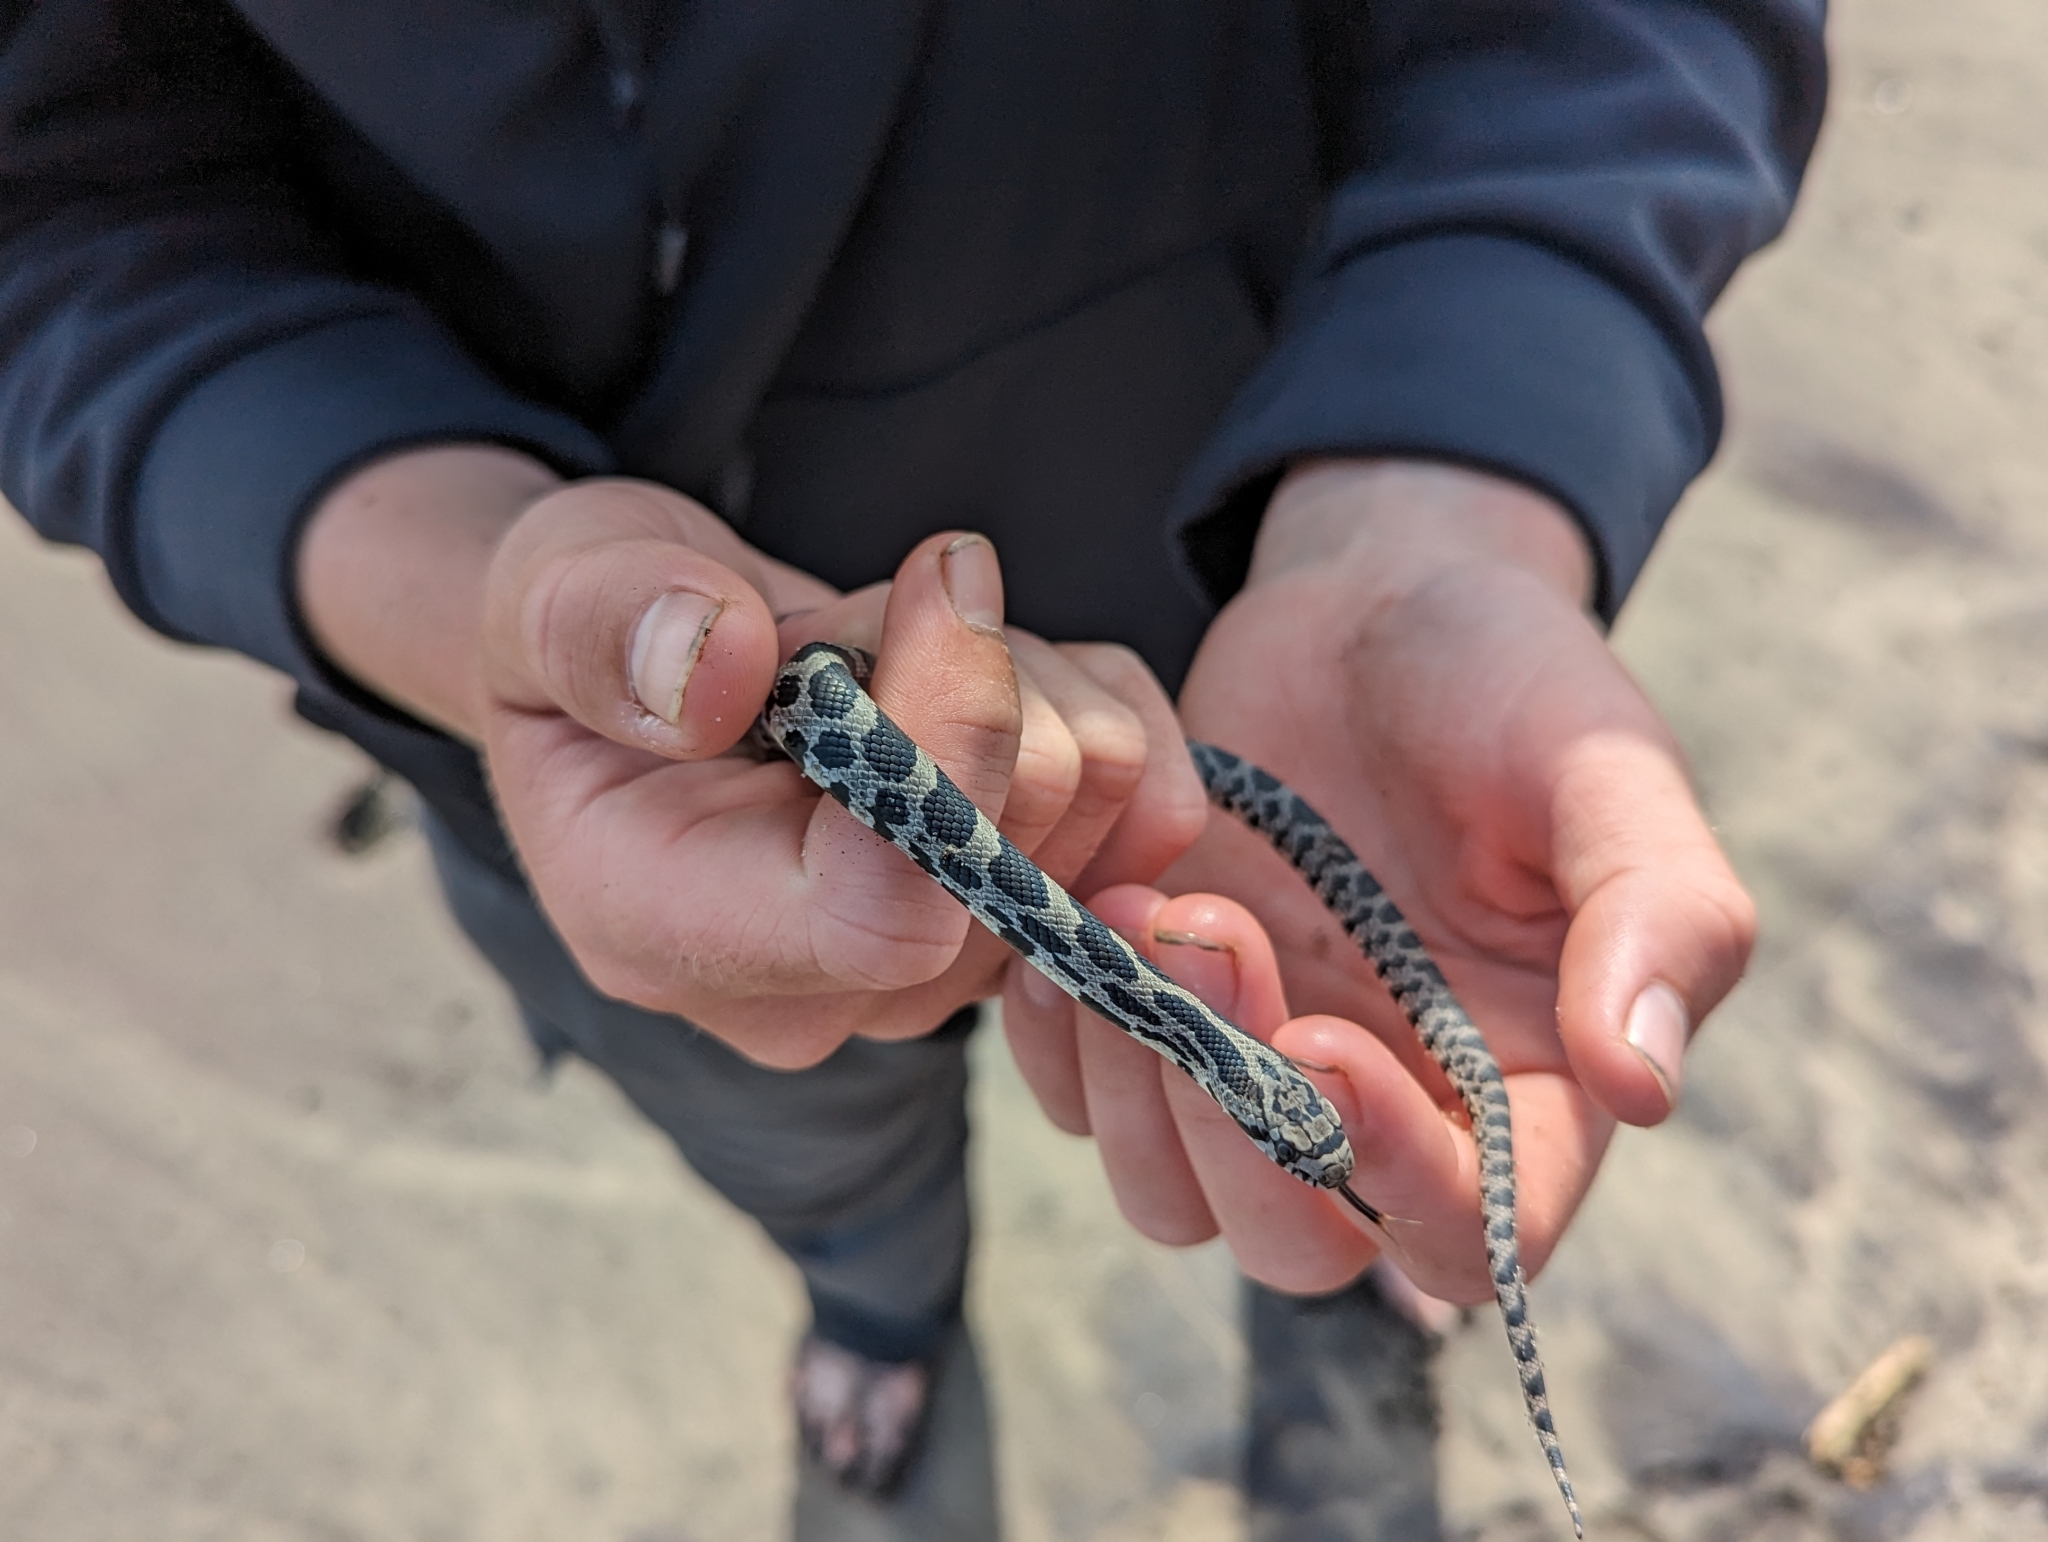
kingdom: Animalia
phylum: Chordata
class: Squamata
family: Colubridae
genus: Pantherophis
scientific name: Pantherophis vulpinus
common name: Eastern fox snake
